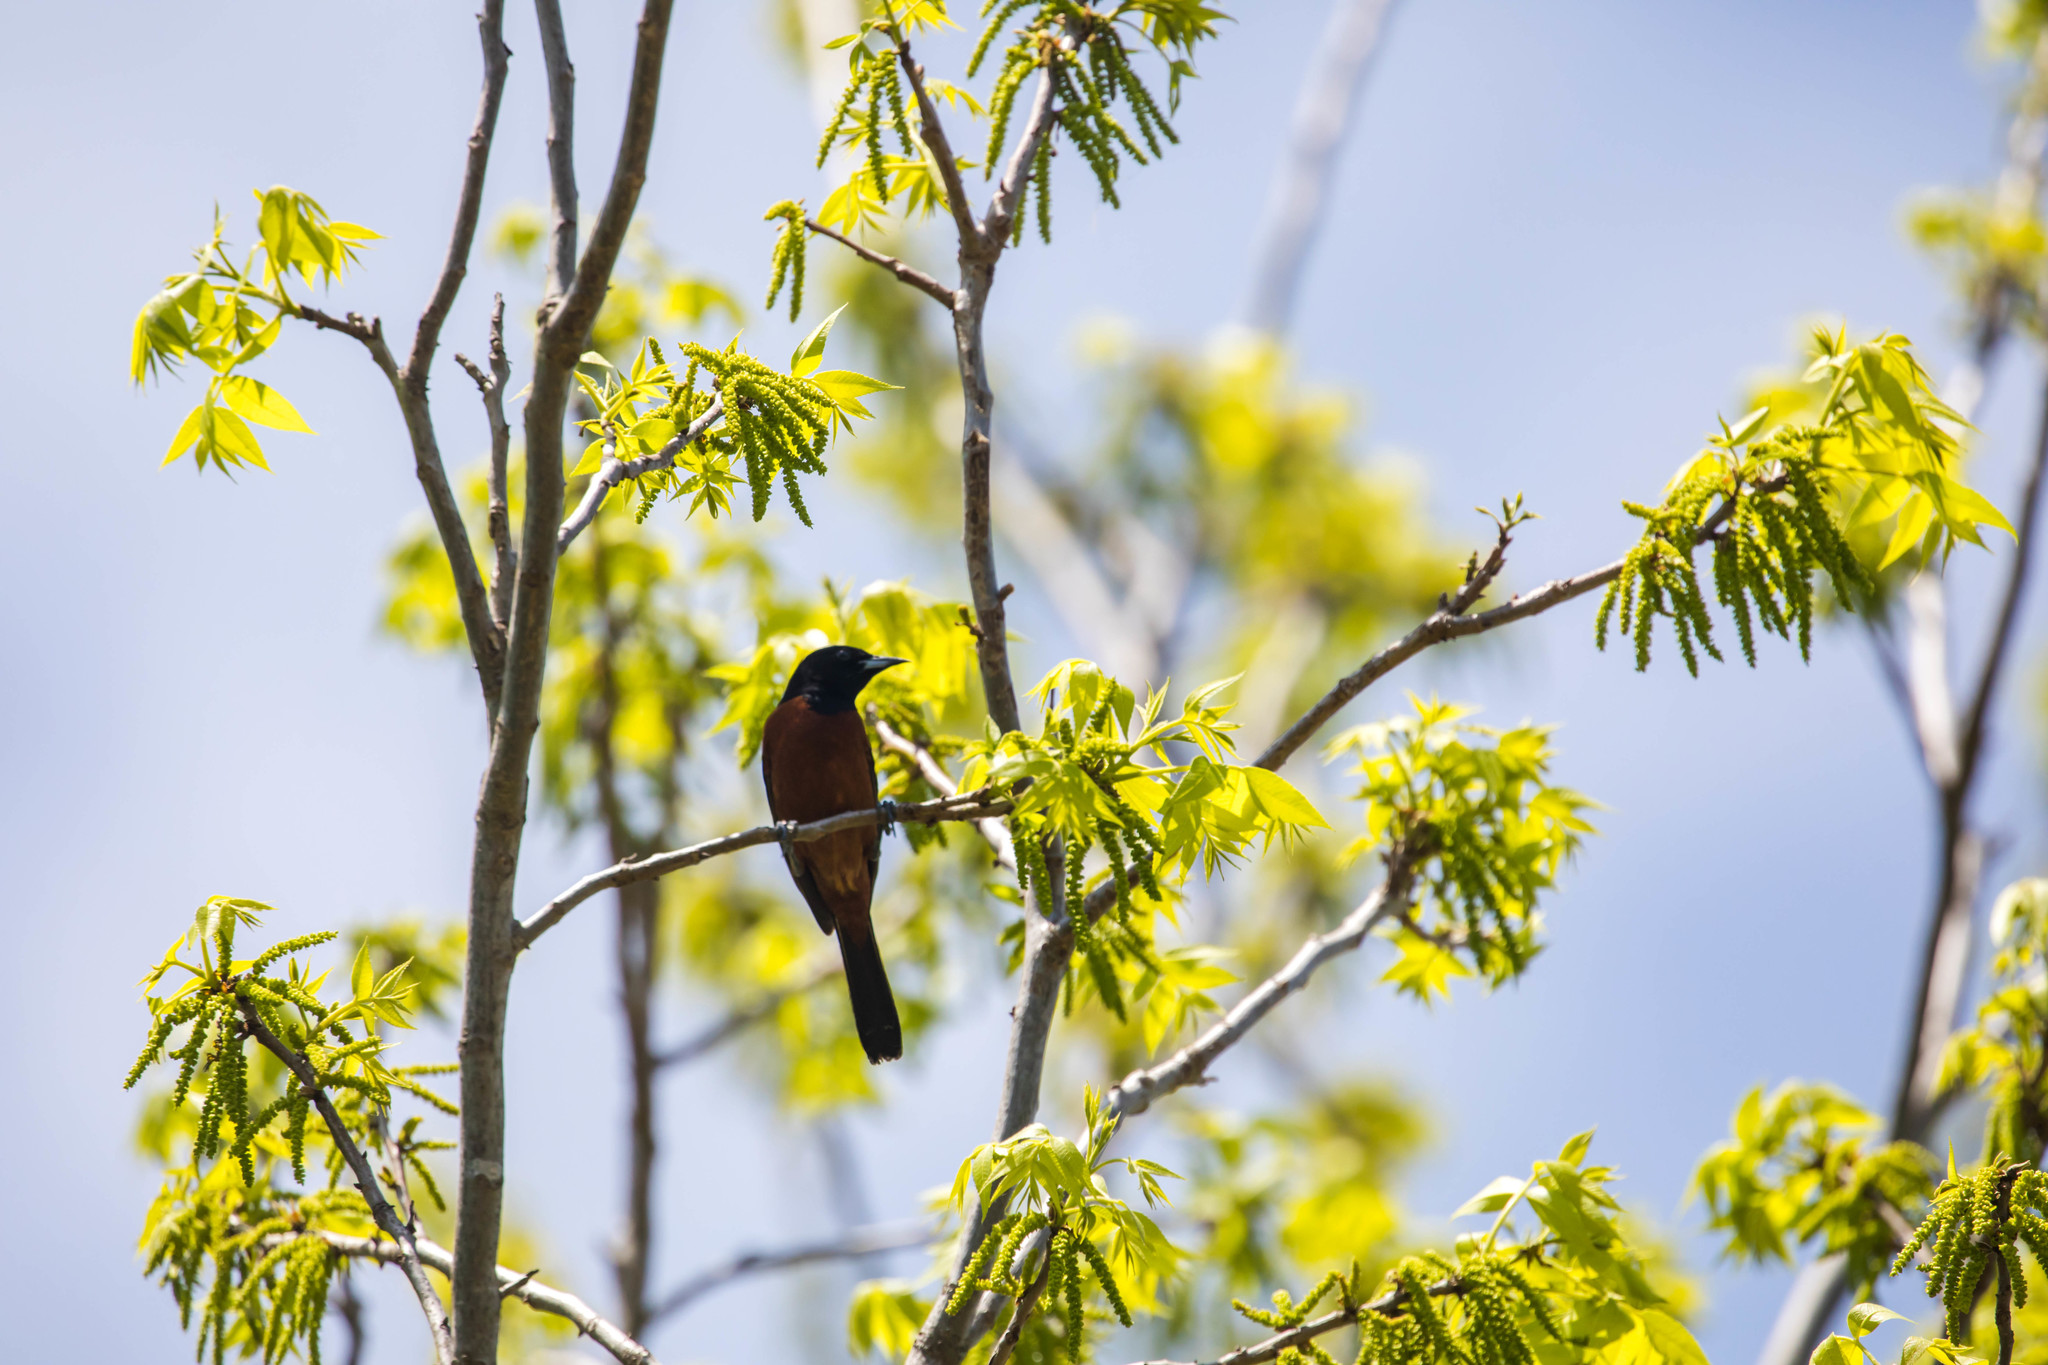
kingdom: Animalia
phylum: Chordata
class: Aves
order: Passeriformes
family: Icteridae
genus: Icterus
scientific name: Icterus spurius
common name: Orchard oriole
